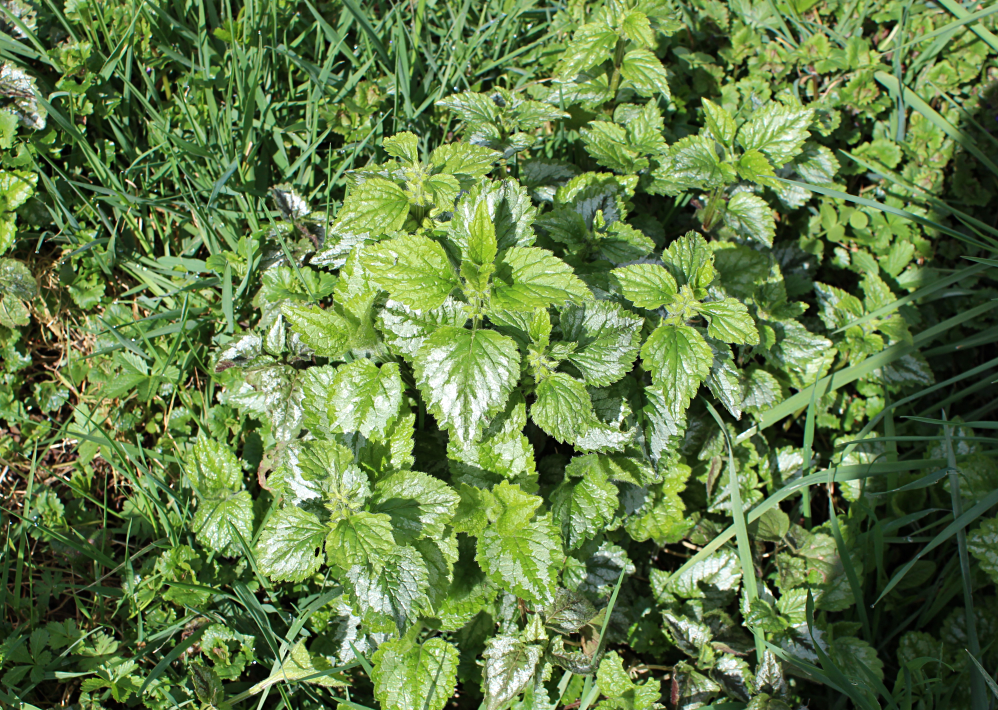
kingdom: Plantae
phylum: Tracheophyta
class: Magnoliopsida
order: Lamiales
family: Lamiaceae
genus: Lamium
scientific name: Lamium galeobdolon
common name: Yellow archangel
